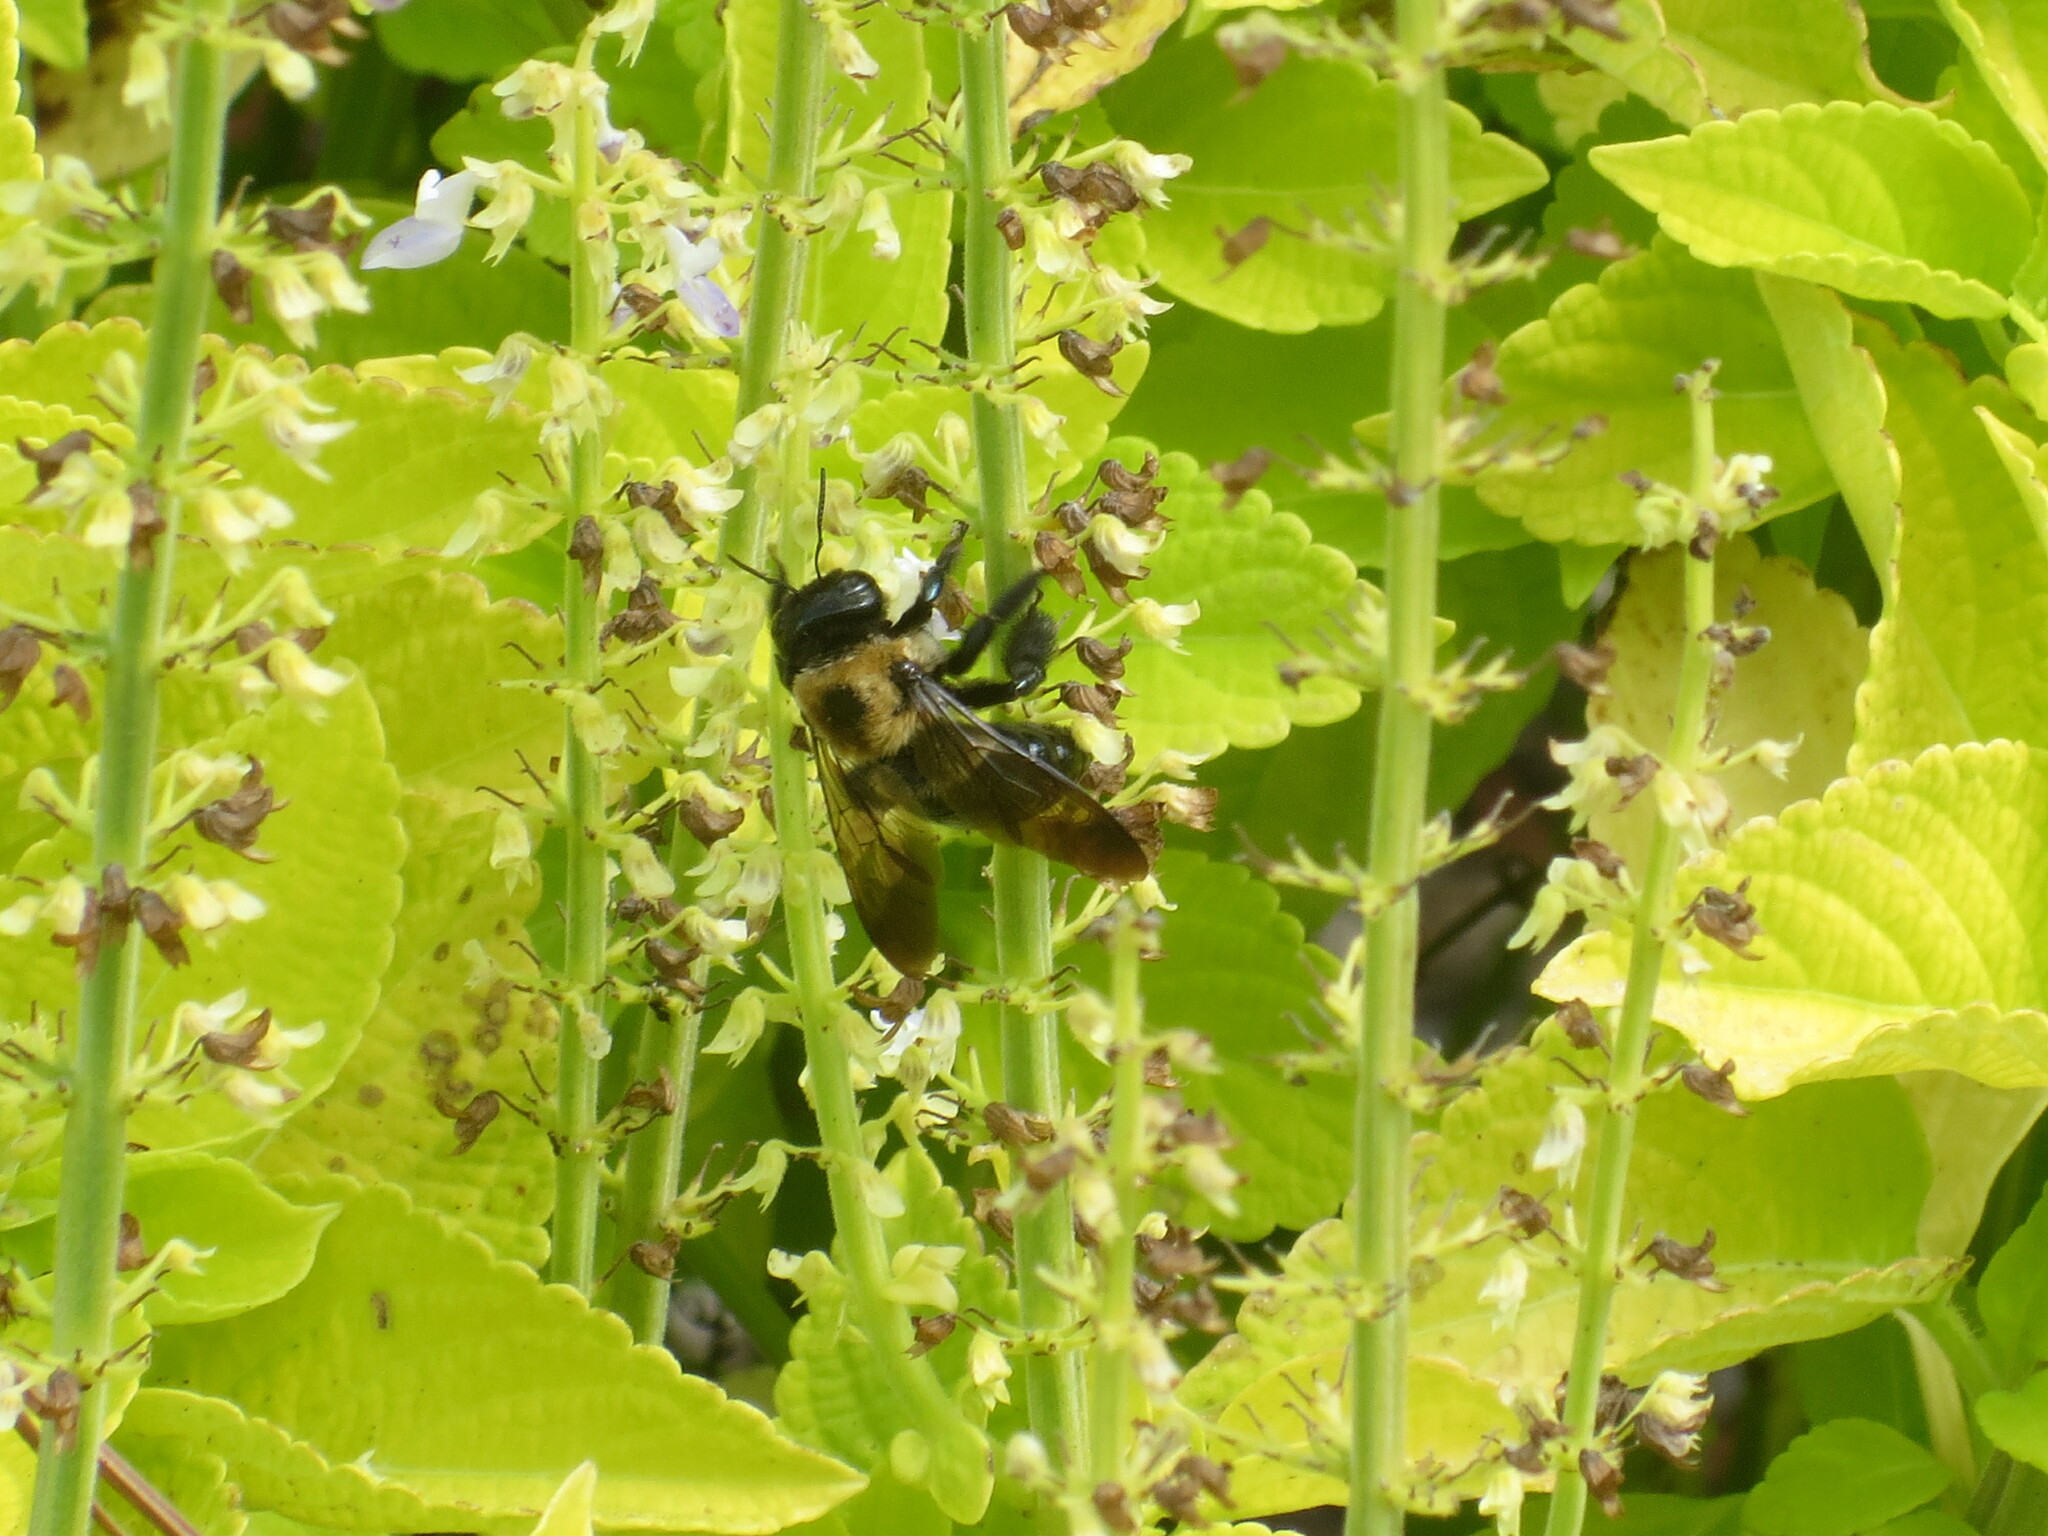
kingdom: Animalia
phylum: Arthropoda
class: Insecta
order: Hymenoptera
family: Apidae
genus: Xylocopa
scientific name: Xylocopa virginica
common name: Carpenter bee
